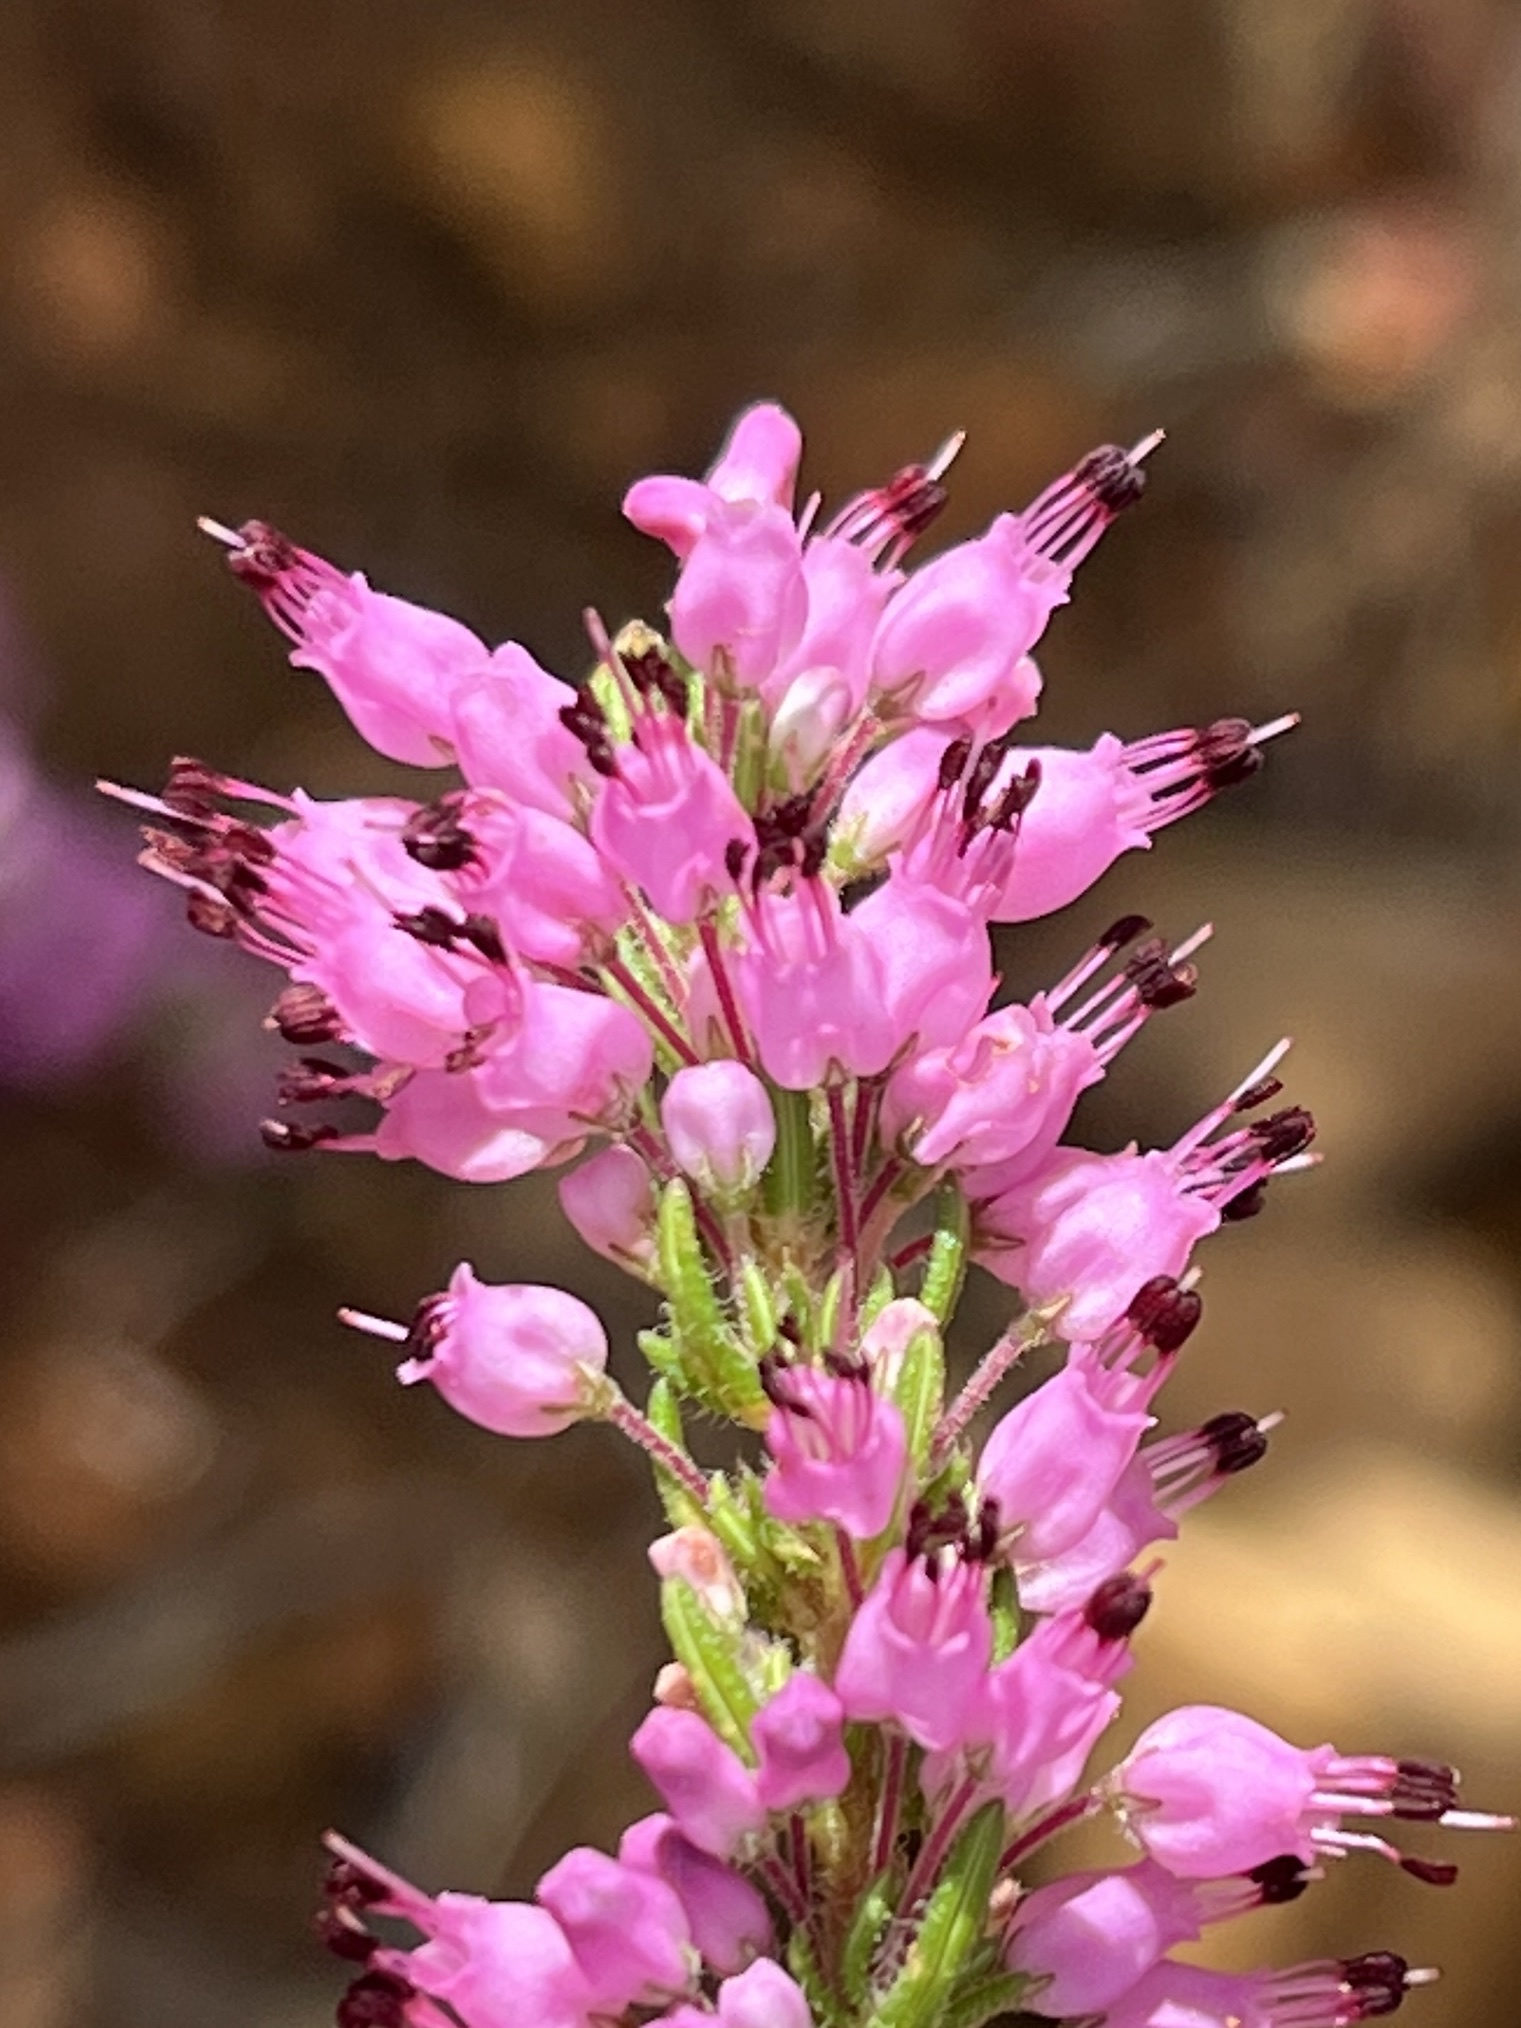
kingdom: Plantae
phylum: Tracheophyta
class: Magnoliopsida
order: Ericales
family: Ericaceae
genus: Erica
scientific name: Erica nudiflora
